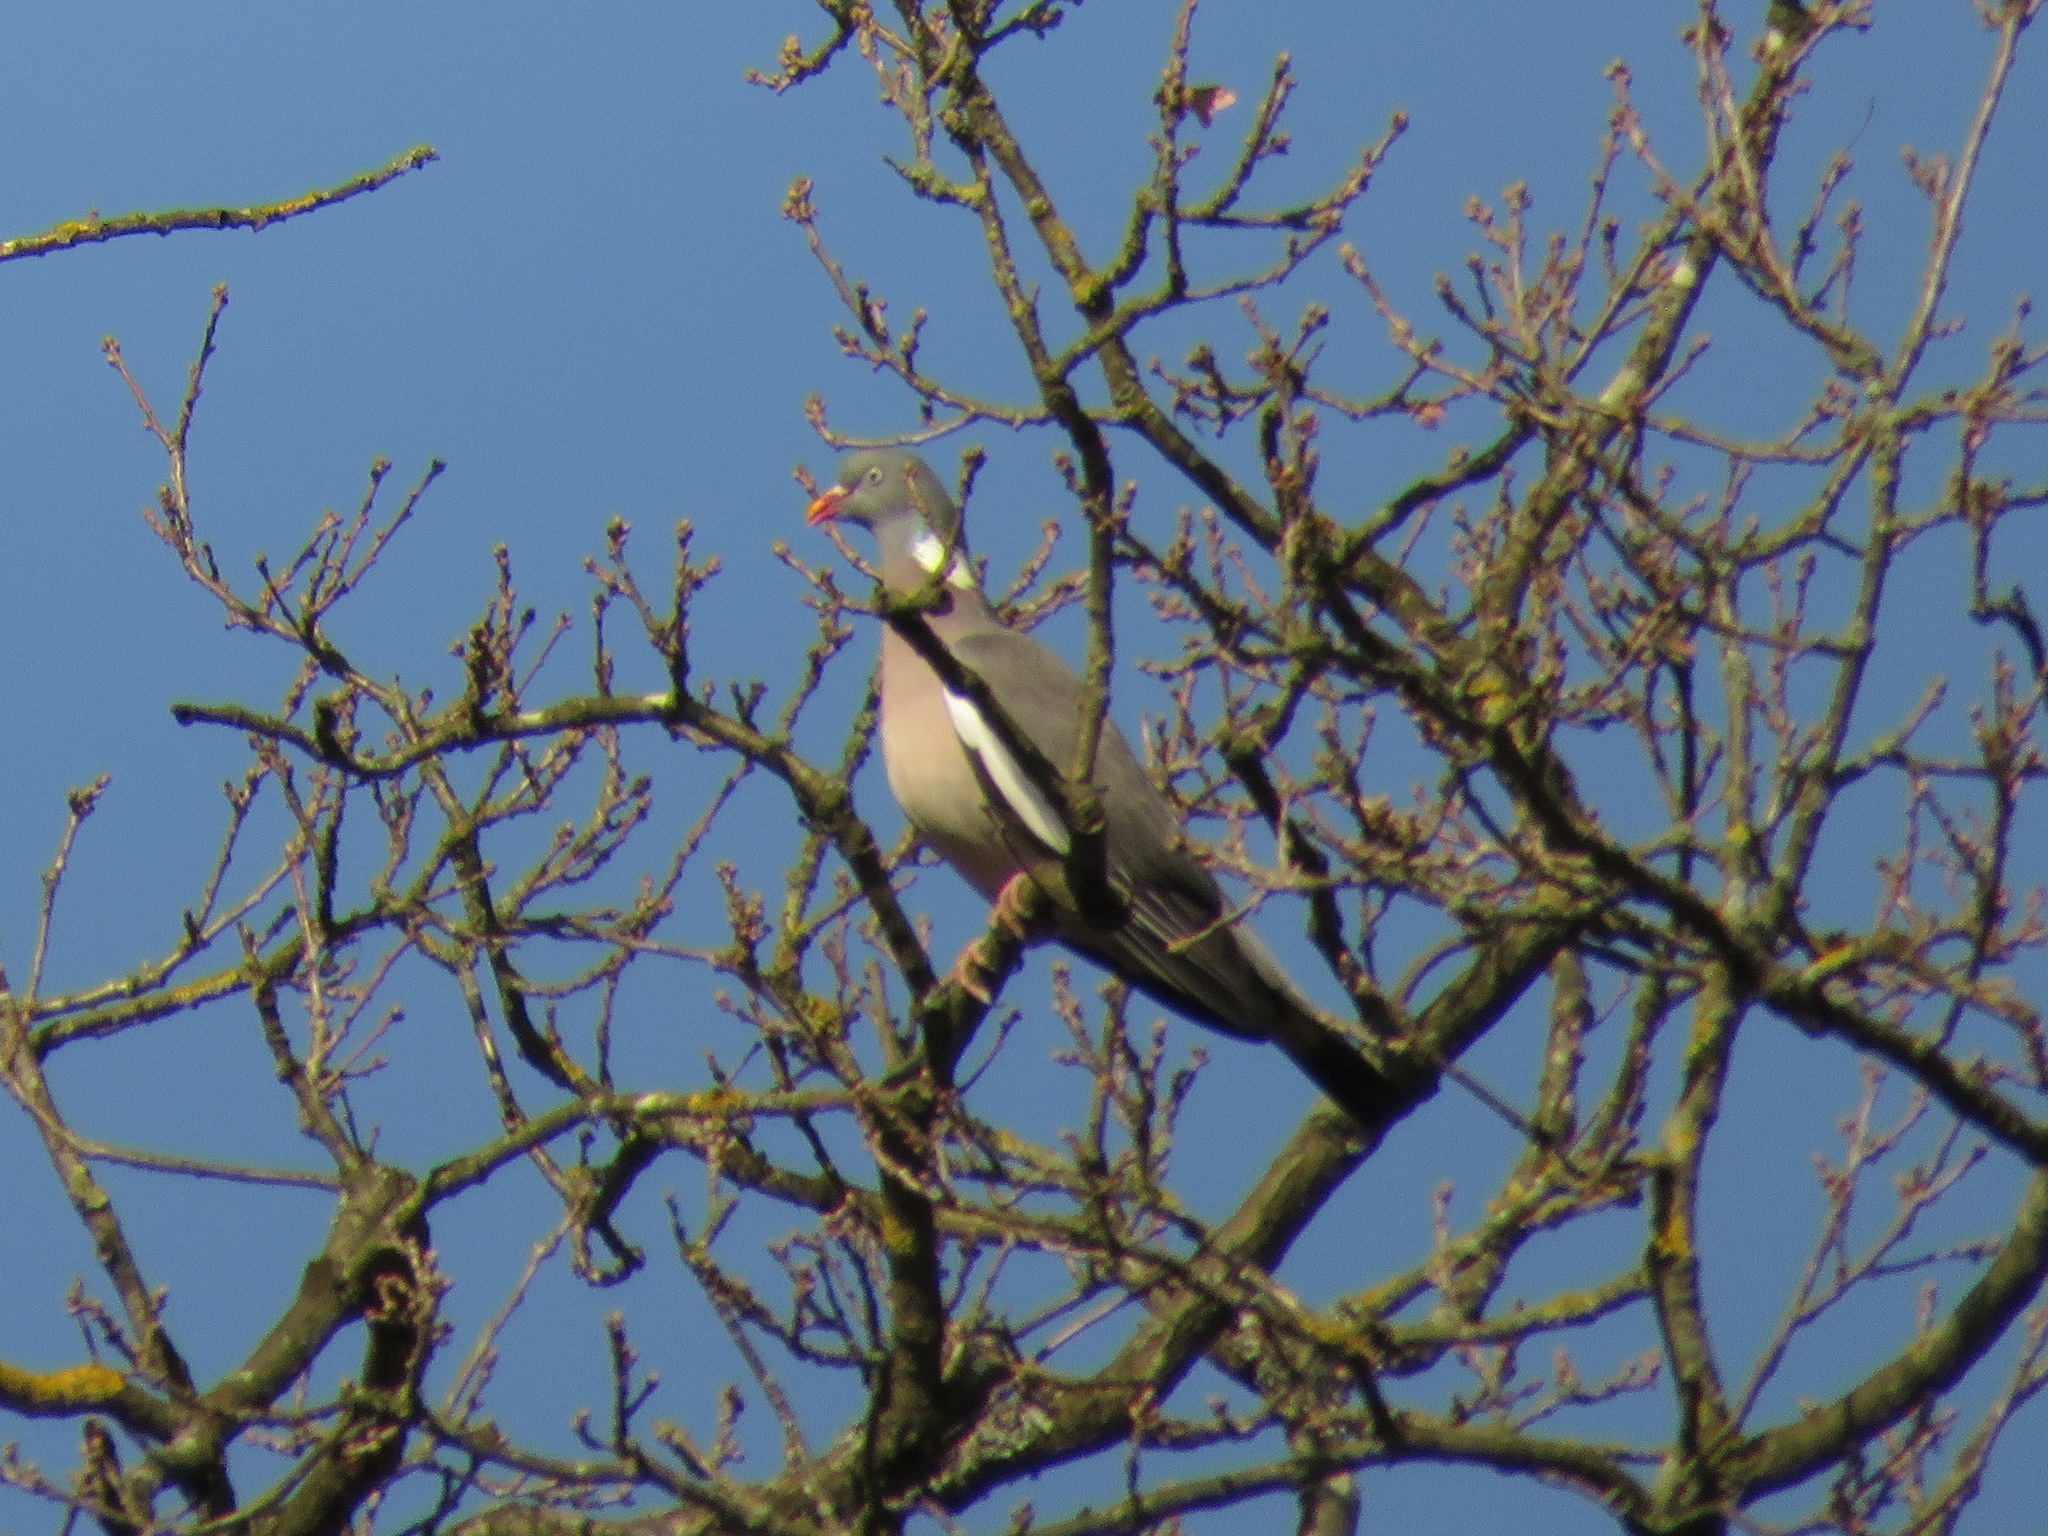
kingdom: Animalia
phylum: Chordata
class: Aves
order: Columbiformes
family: Columbidae
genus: Columba
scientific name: Columba palumbus
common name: Common wood pigeon
